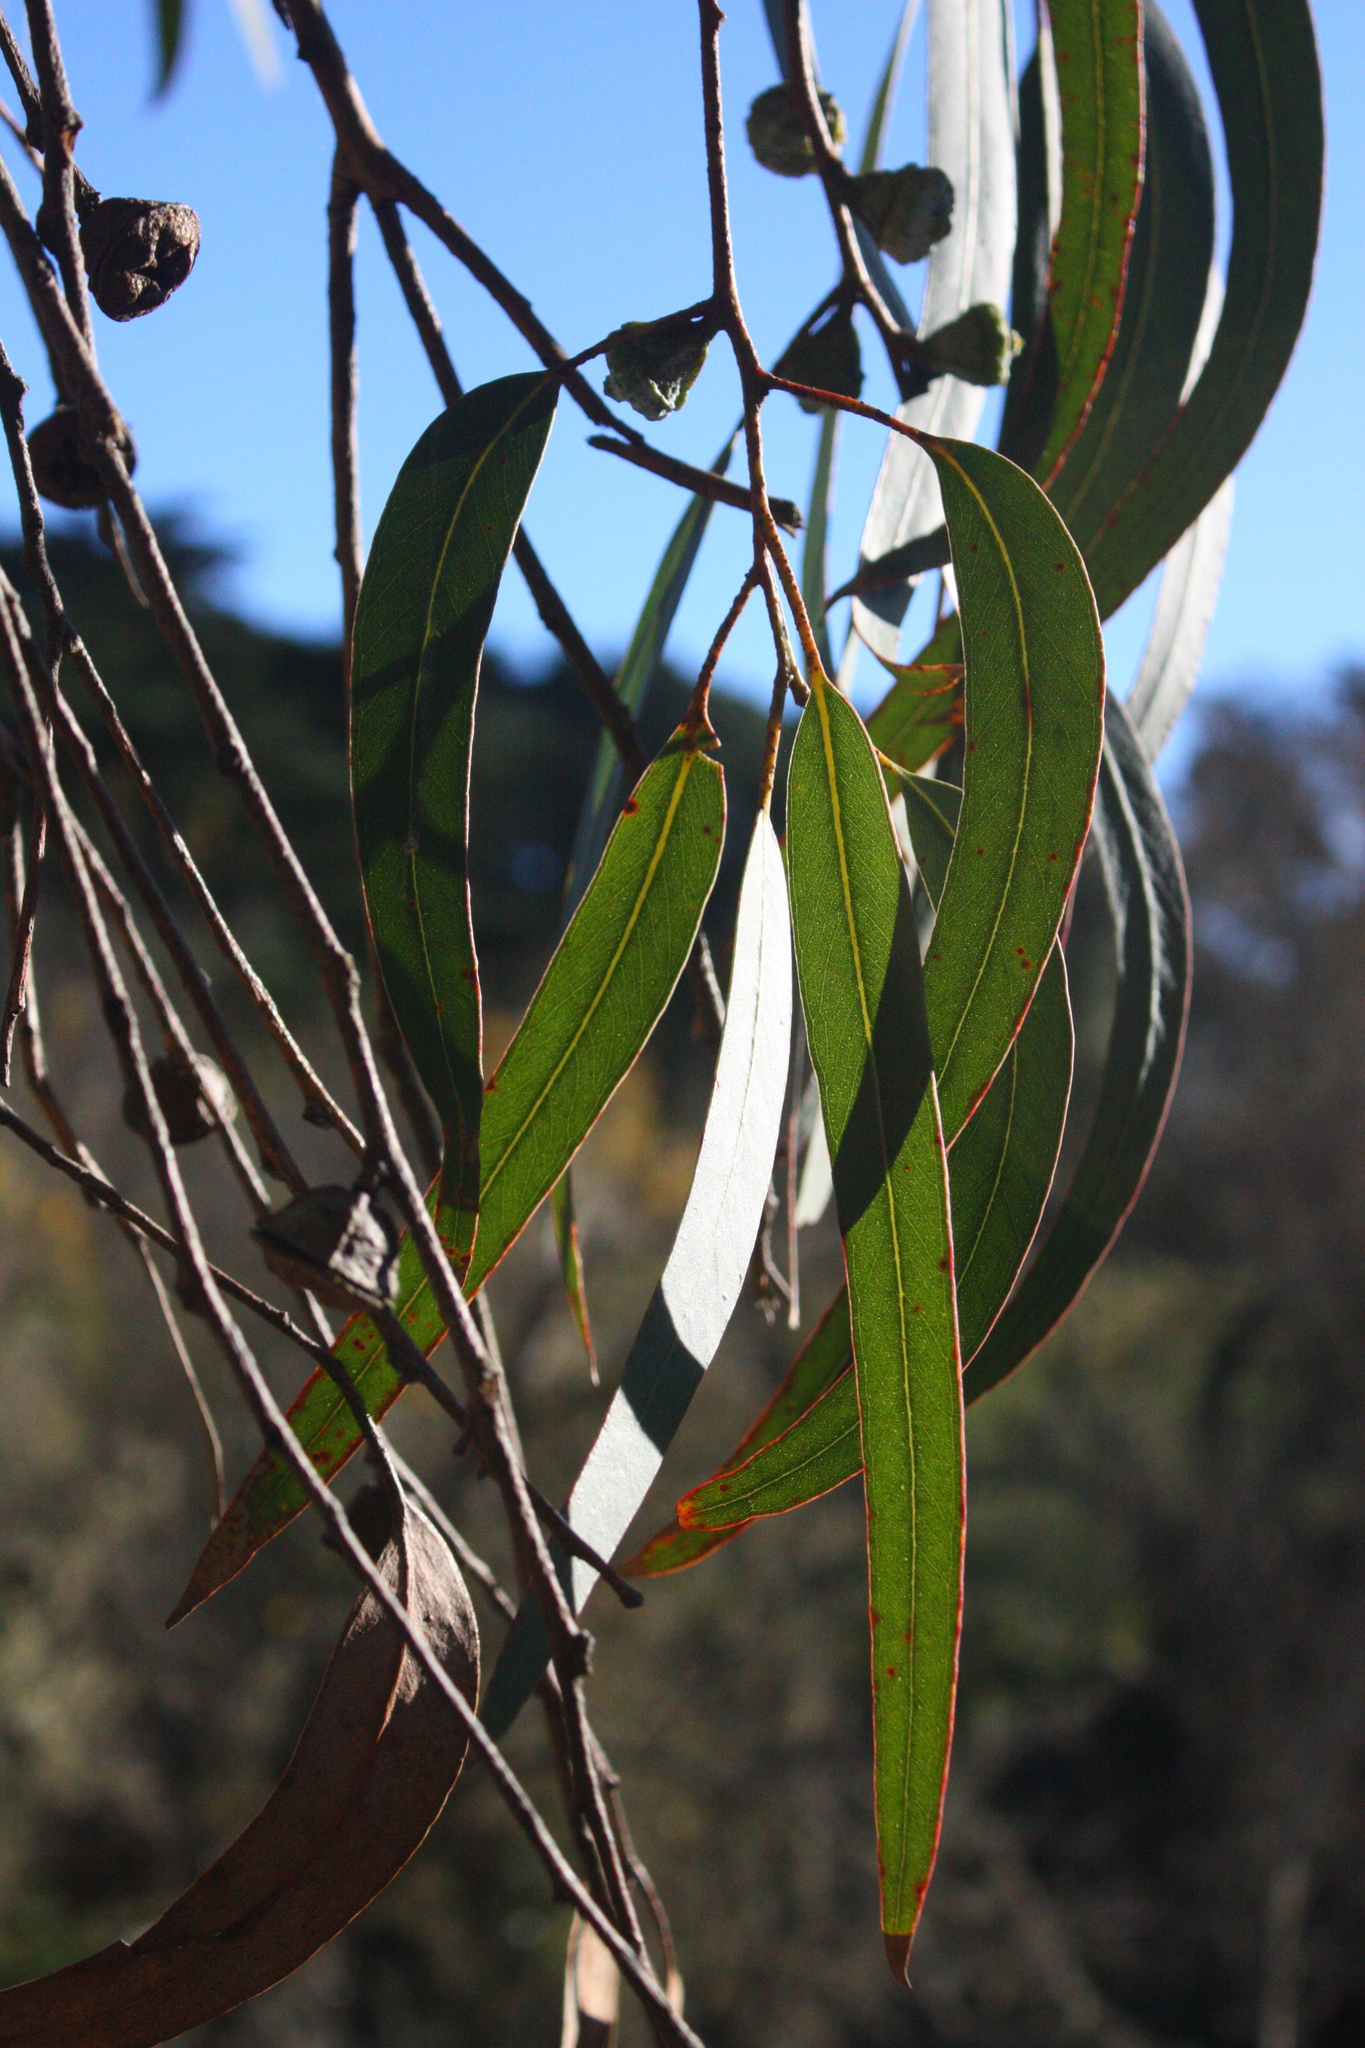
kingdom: Plantae
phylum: Tracheophyta
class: Magnoliopsida
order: Myrtales
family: Myrtaceae
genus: Eucalyptus
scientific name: Eucalyptus globulus
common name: Southern blue-gum
